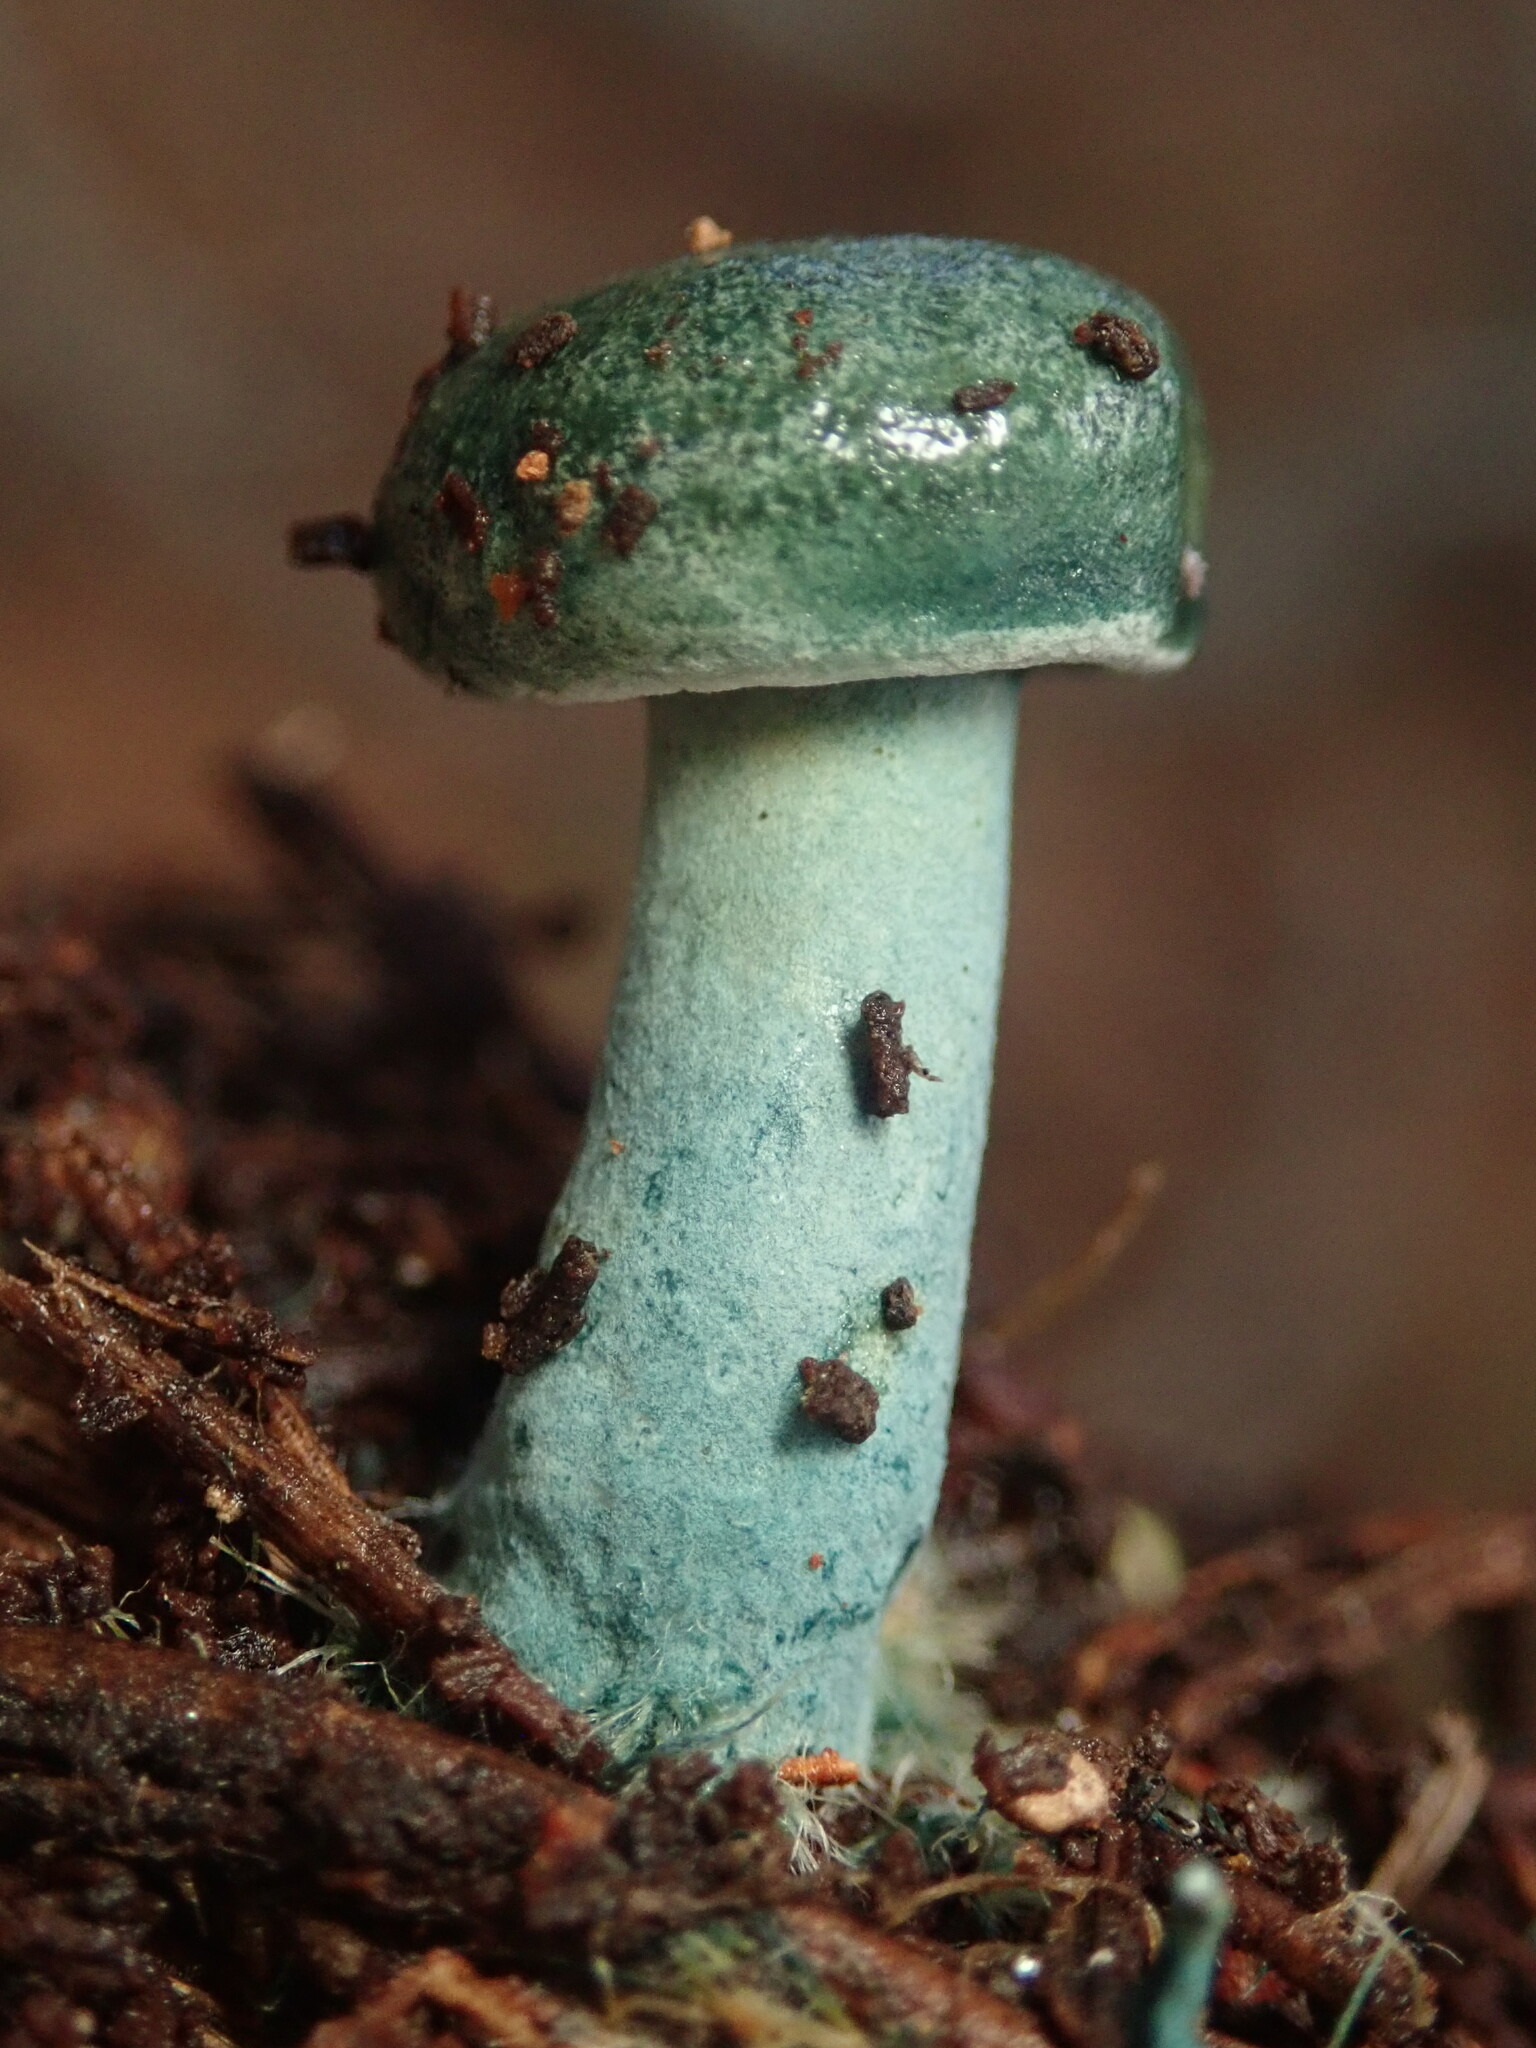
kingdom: Fungi
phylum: Basidiomycota
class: Agaricomycetes
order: Agaricales
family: Strophariaceae
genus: Stropharia
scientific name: Stropharia caerulea
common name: Blue roundhead
